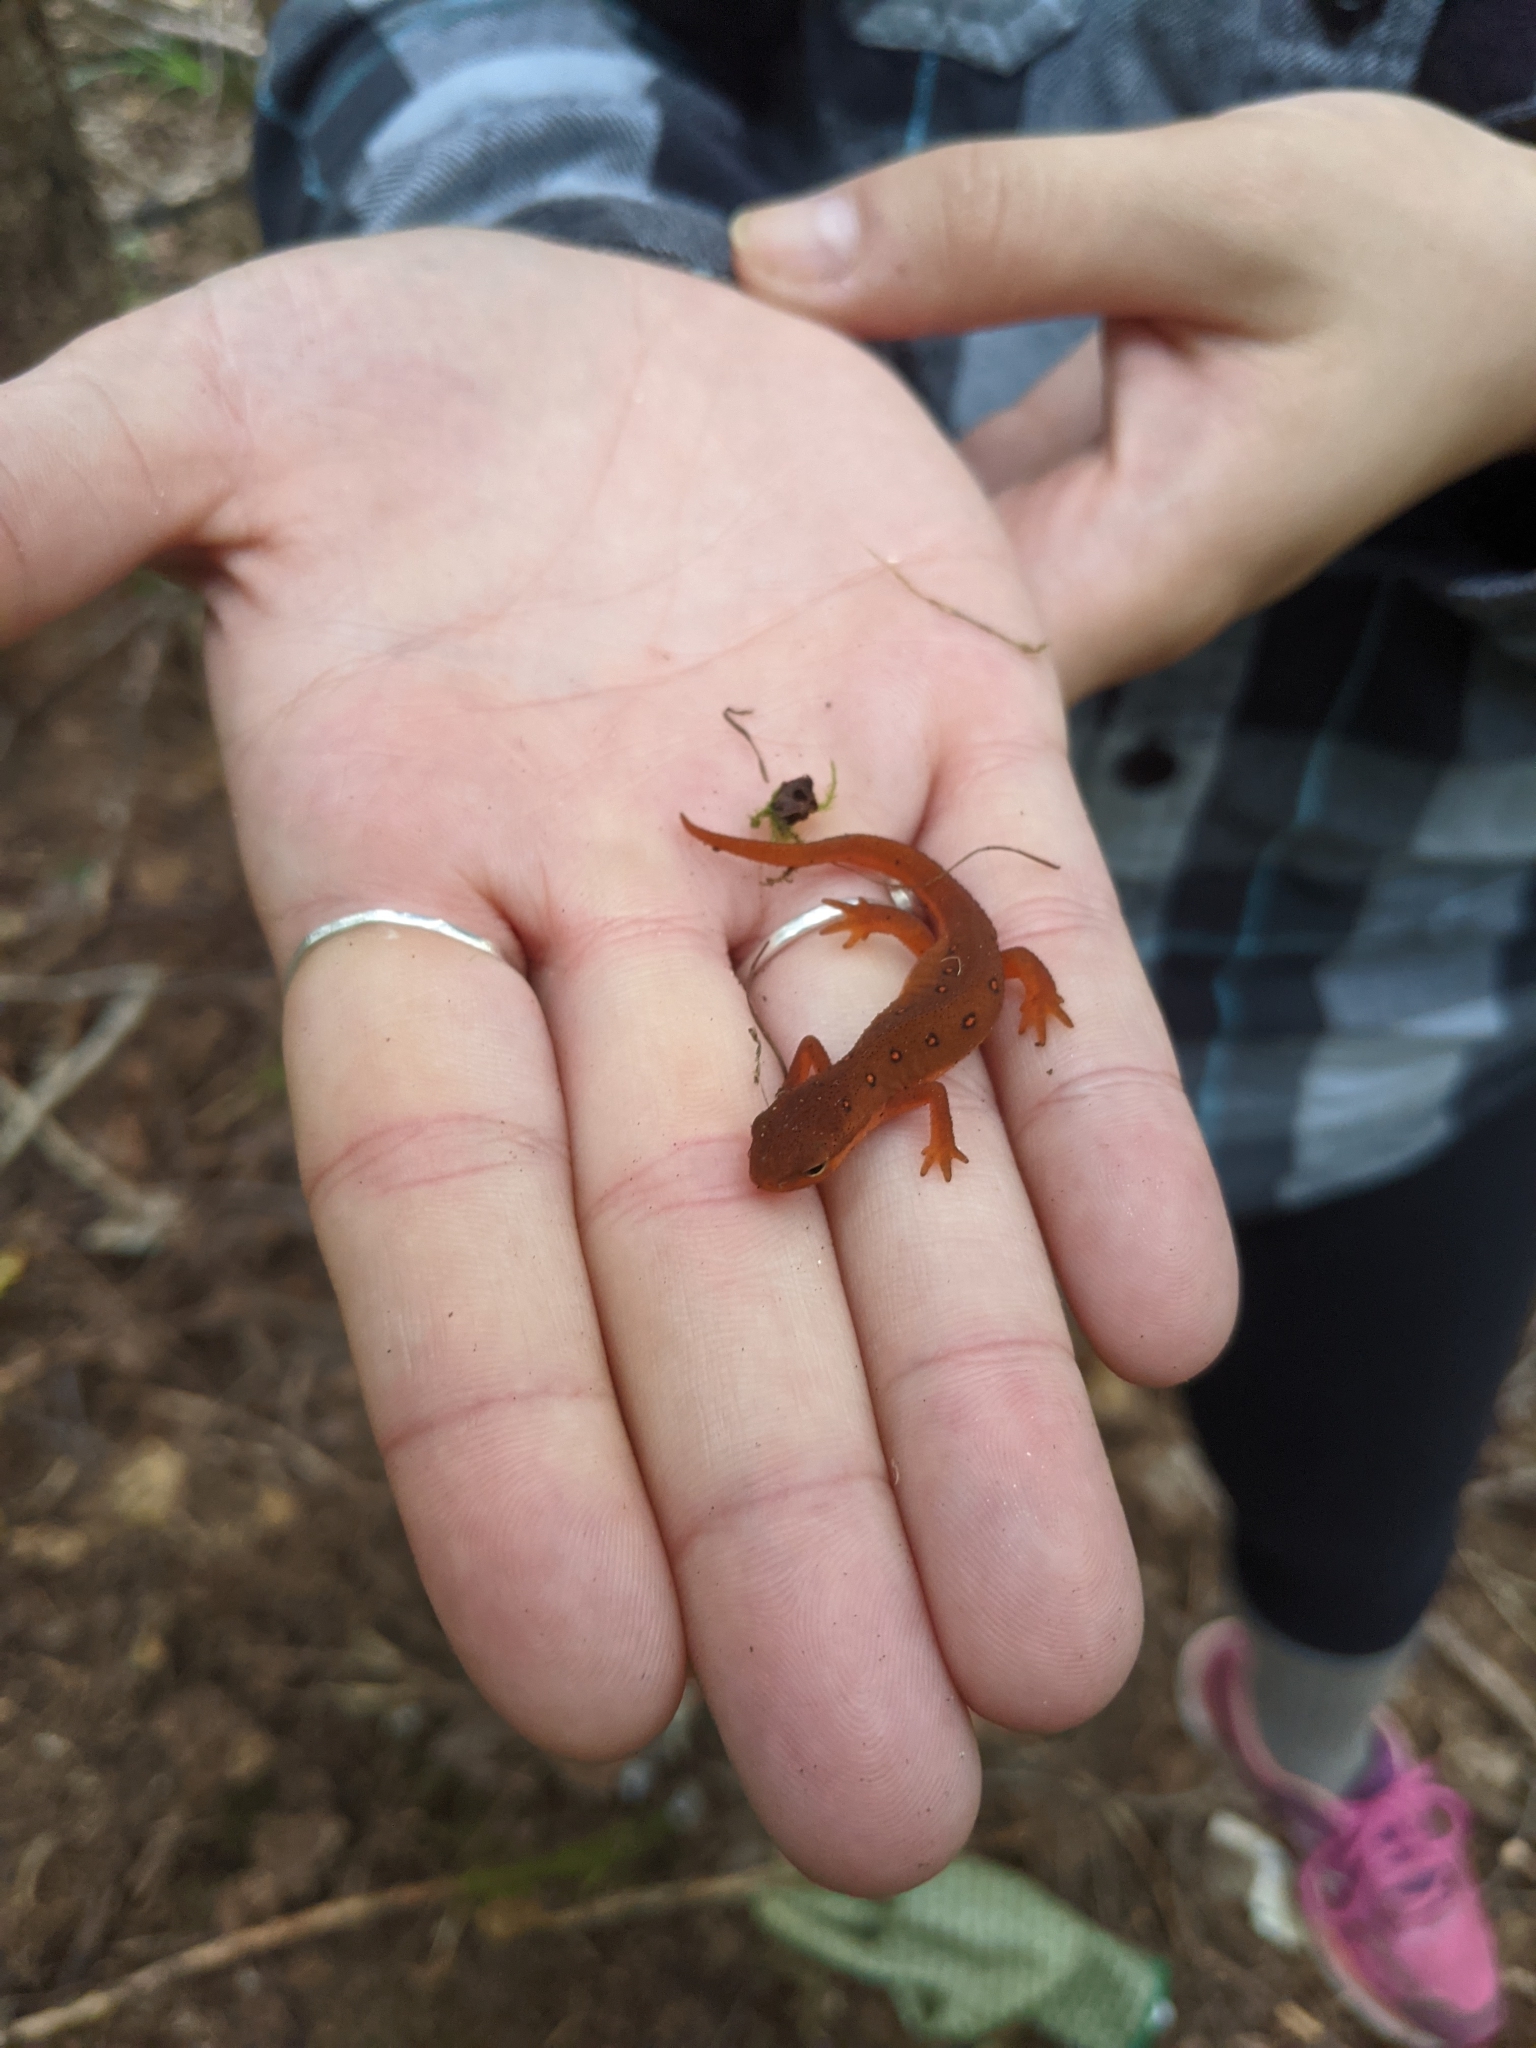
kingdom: Animalia
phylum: Chordata
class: Amphibia
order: Caudata
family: Salamandridae
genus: Notophthalmus
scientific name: Notophthalmus viridescens
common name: Eastern newt
